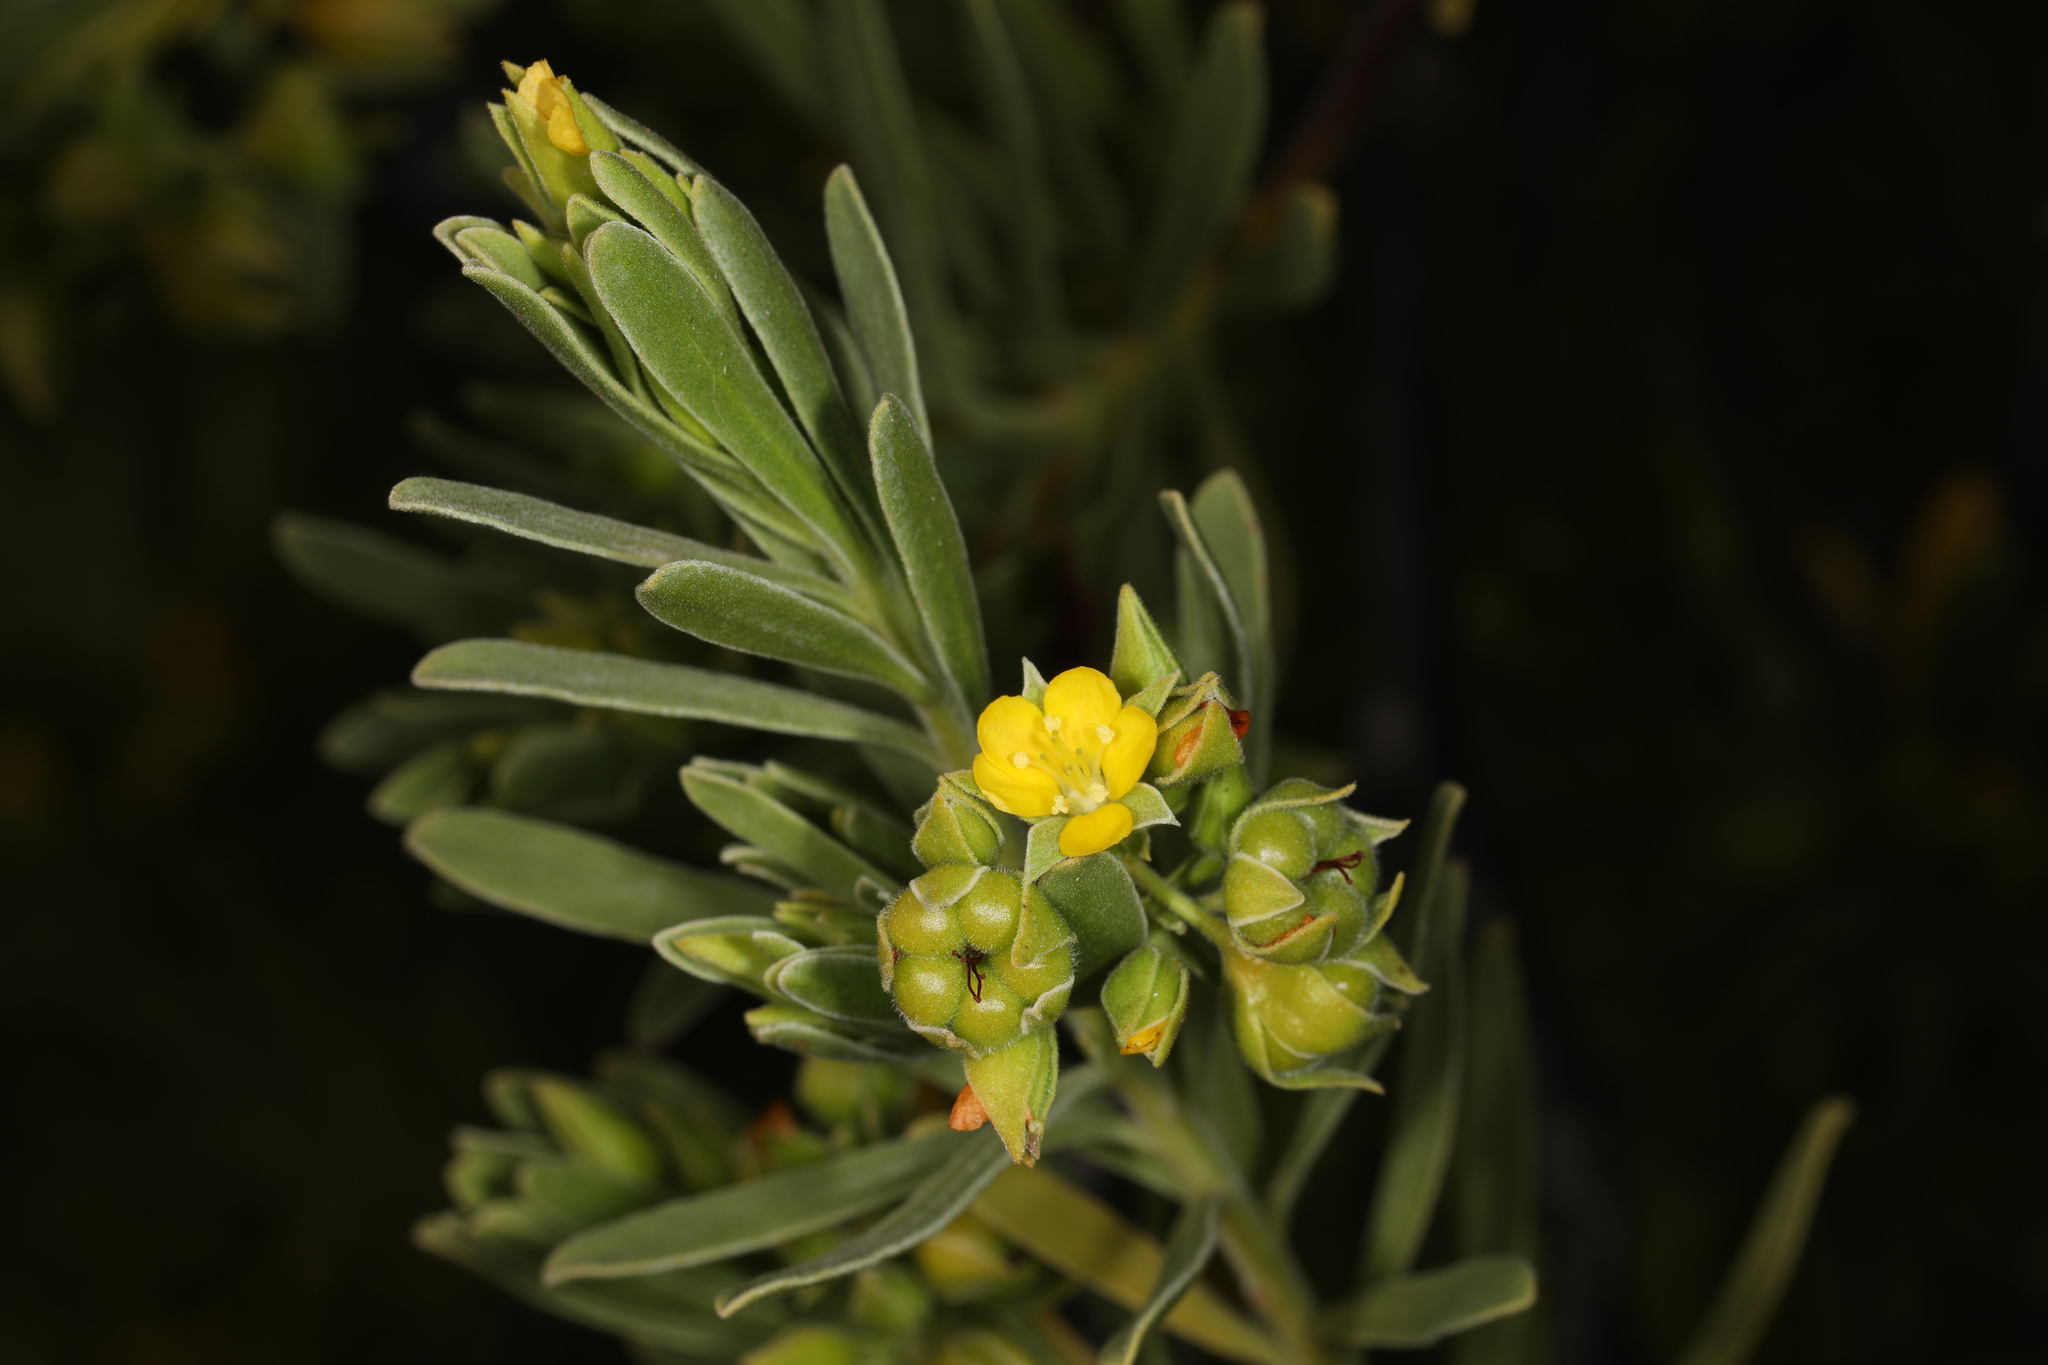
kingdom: Plantae
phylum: Tracheophyta
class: Magnoliopsida
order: Fabales
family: Surianaceae
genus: Suriana
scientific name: Suriana maritima
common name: Bay-cedar
